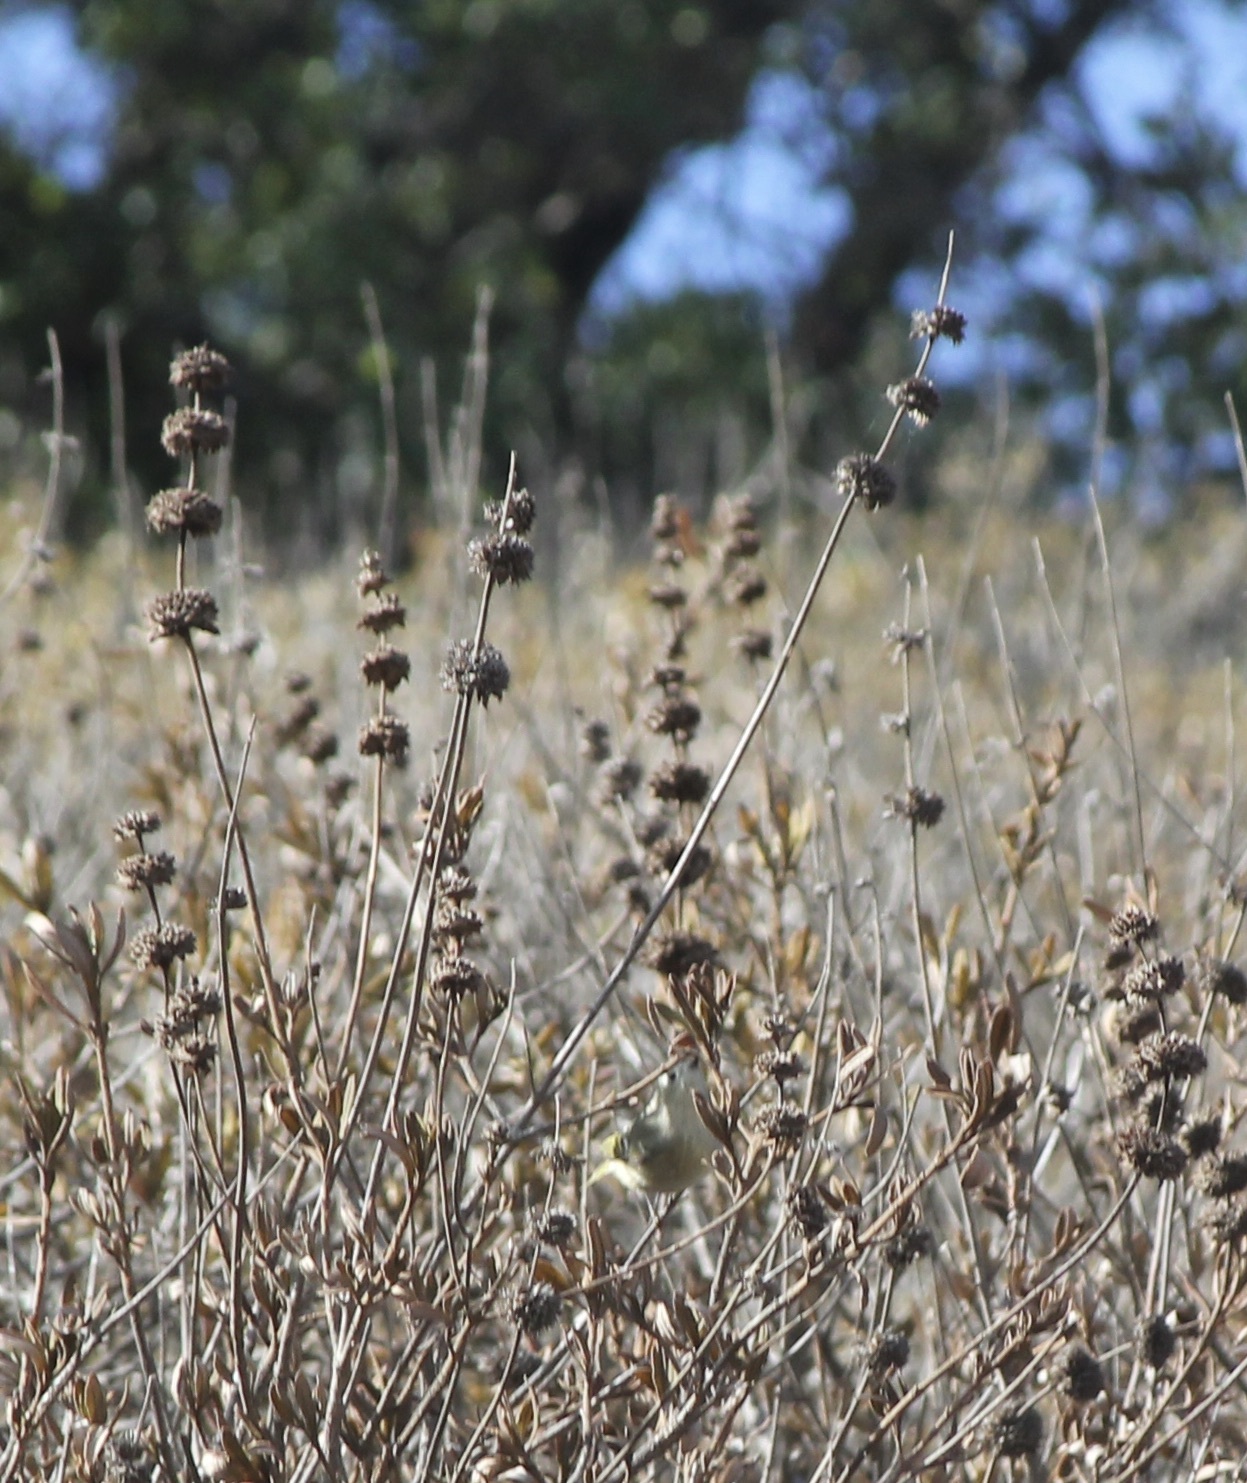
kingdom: Animalia
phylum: Chordata
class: Aves
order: Passeriformes
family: Regulidae
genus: Regulus
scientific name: Regulus calendula
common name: Ruby-crowned kinglet
